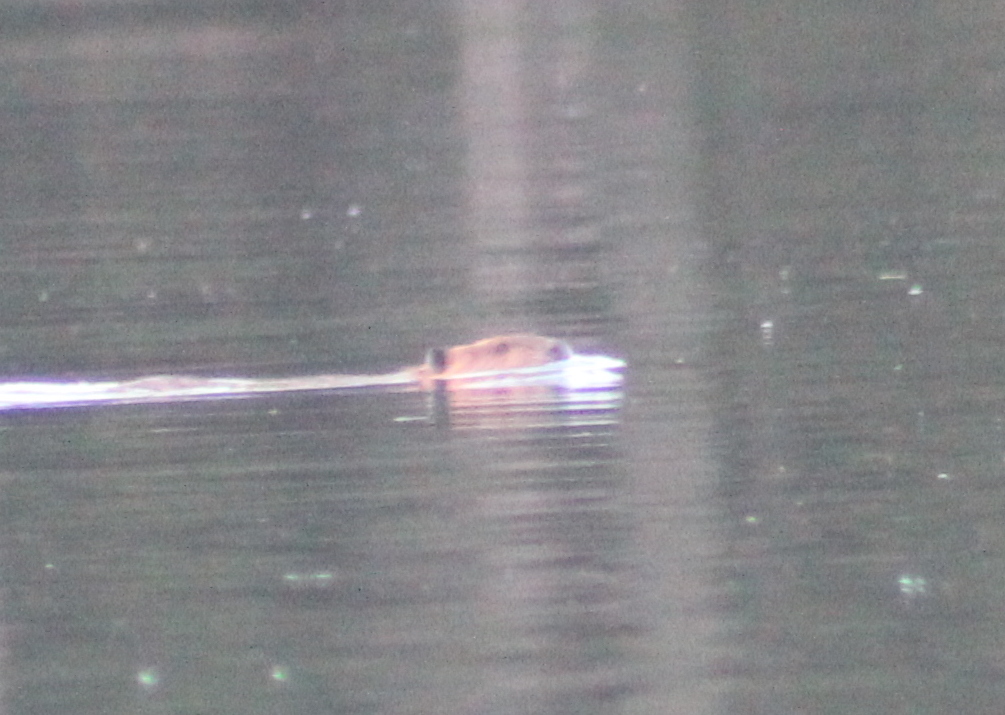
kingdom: Animalia
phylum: Chordata
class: Mammalia
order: Rodentia
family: Castoridae
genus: Castor
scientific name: Castor canadensis
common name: American beaver
